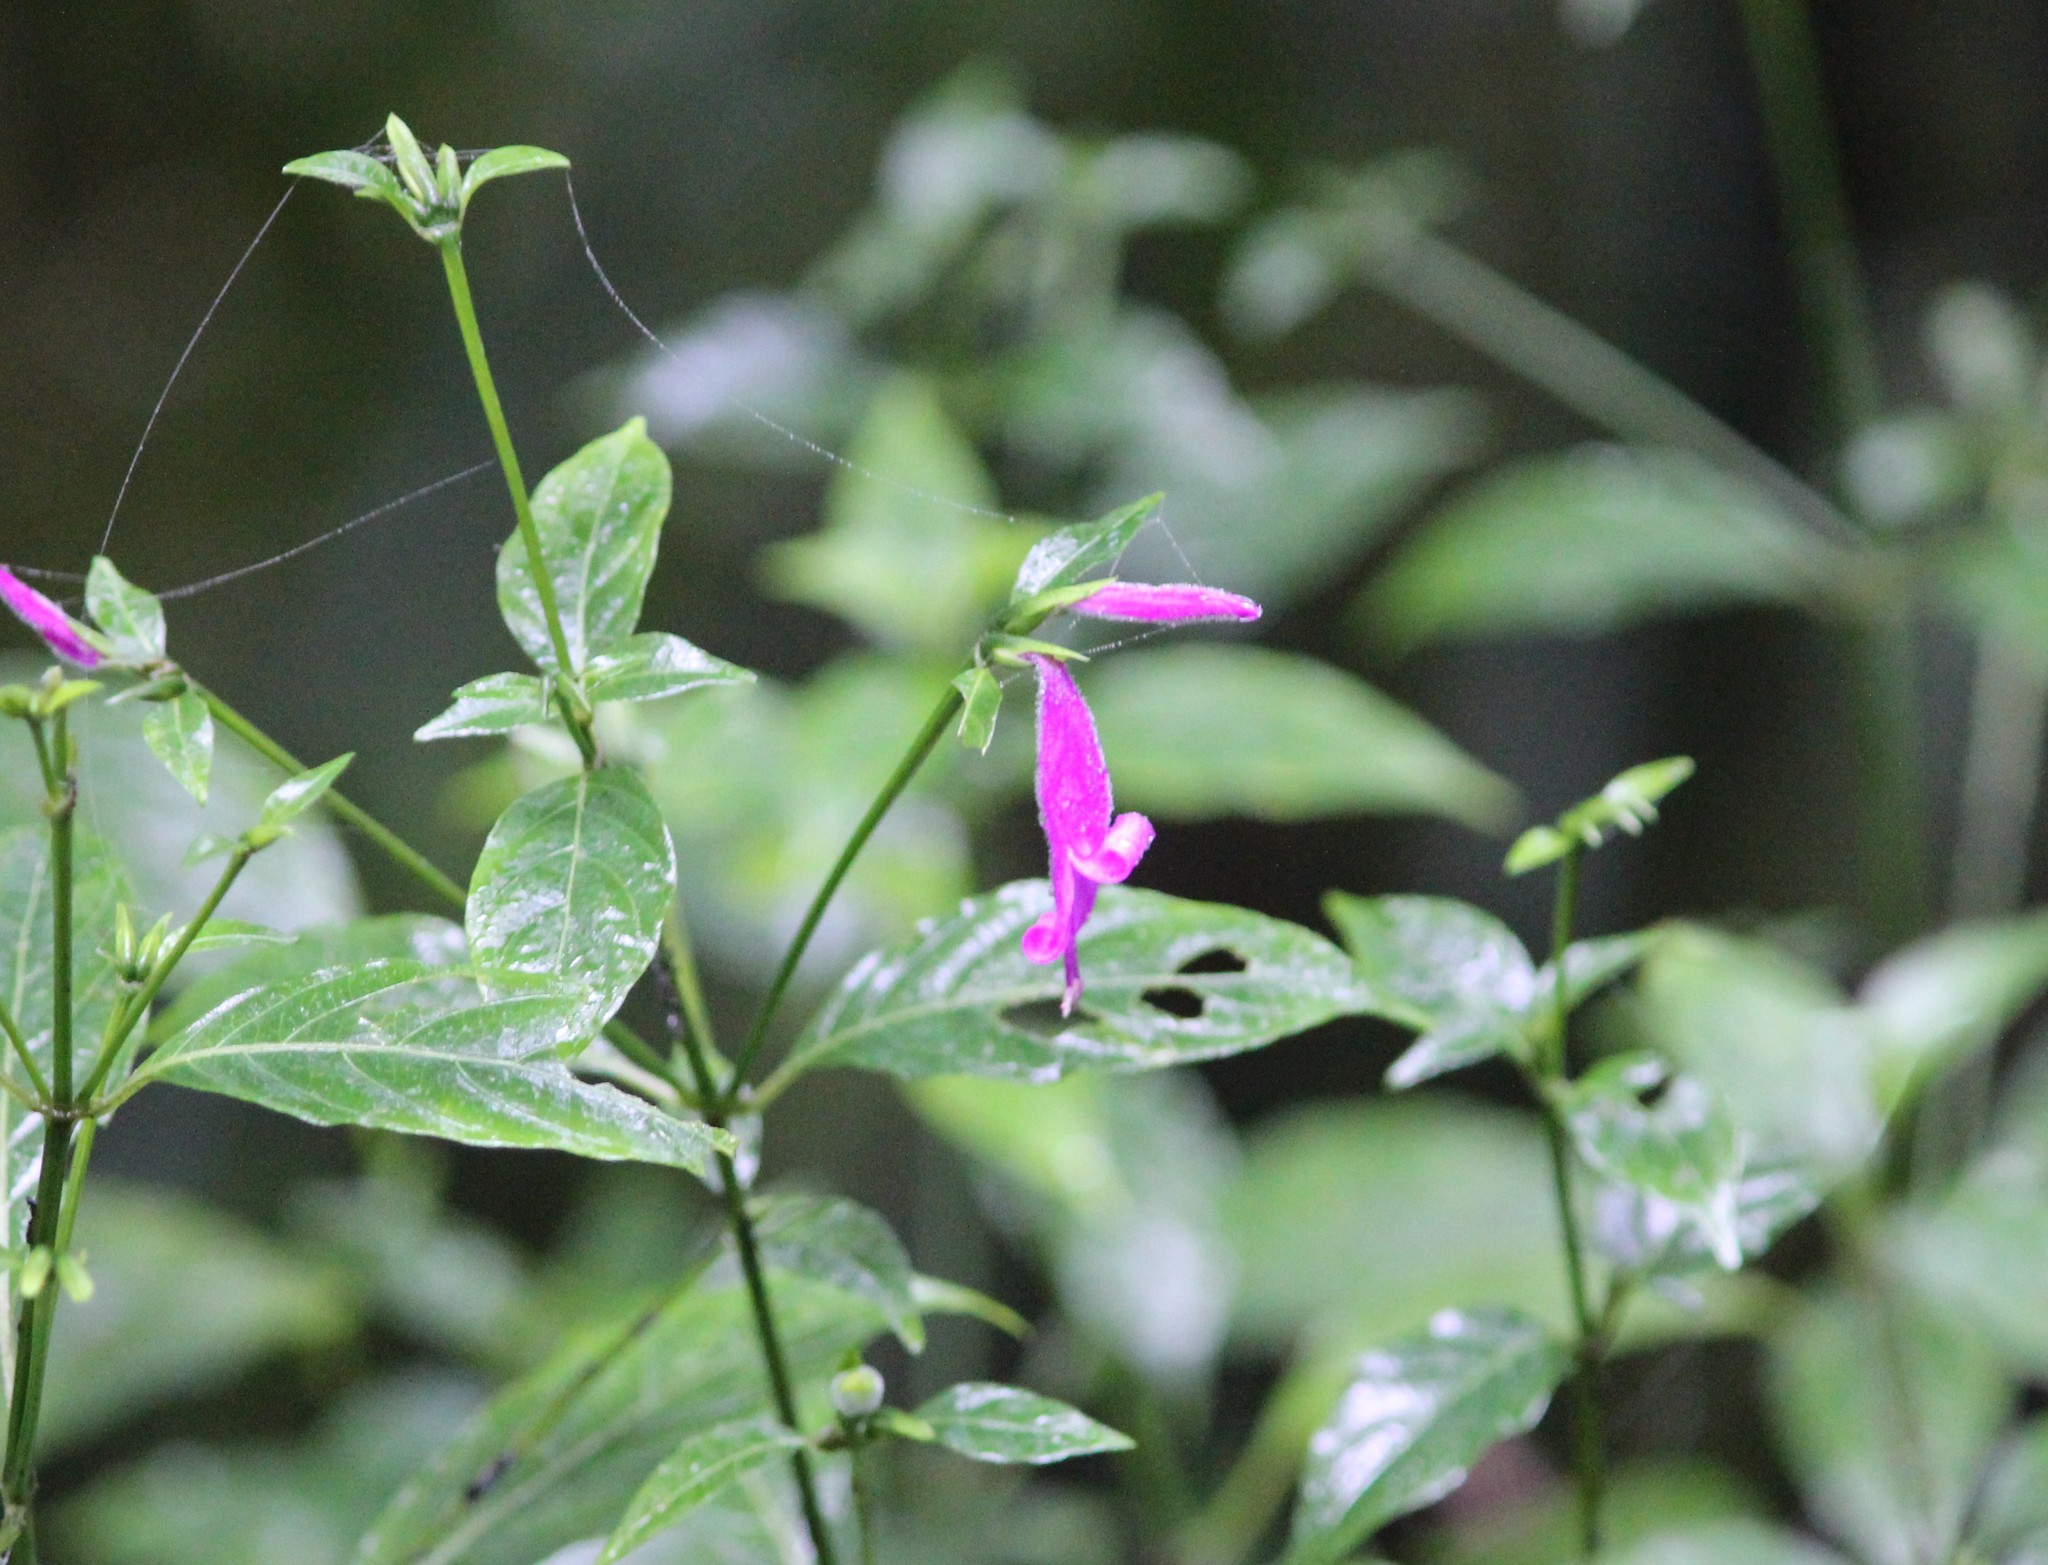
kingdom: Plantae
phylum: Tracheophyta
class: Magnoliopsida
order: Lamiales
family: Acanthaceae
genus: Dicliptera
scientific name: Dicliptera iopus
